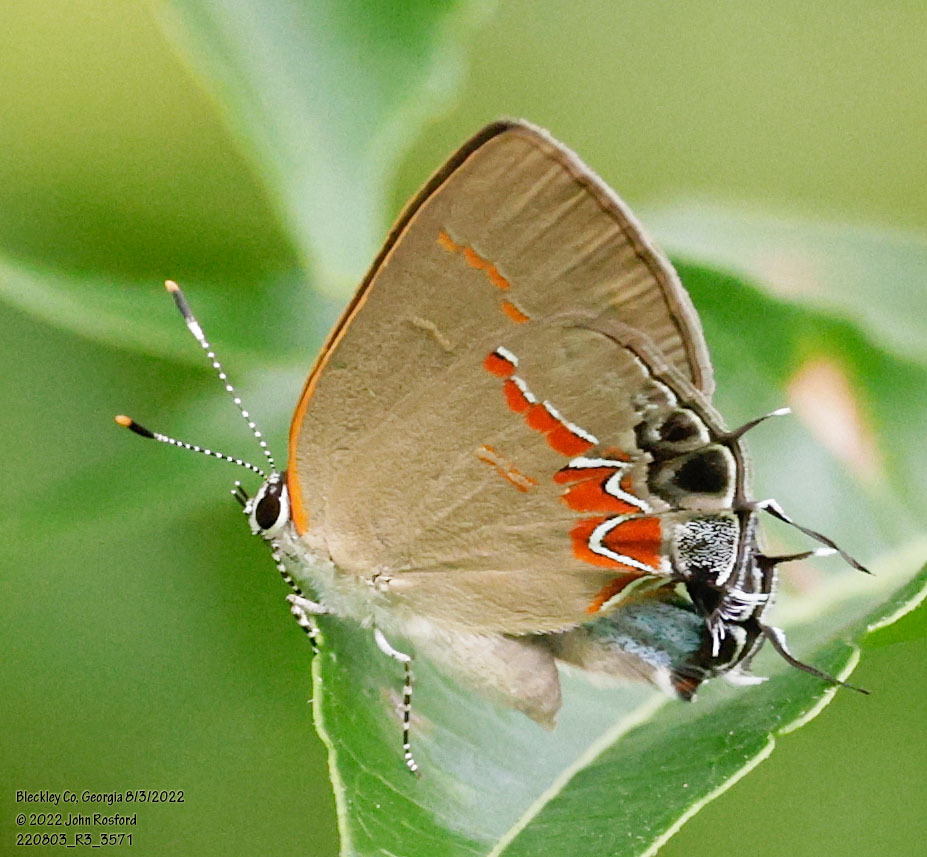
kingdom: Animalia
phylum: Arthropoda
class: Insecta
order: Lepidoptera
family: Lycaenidae
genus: Calycopis
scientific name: Calycopis cecrops
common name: Red-banded hairstreak
